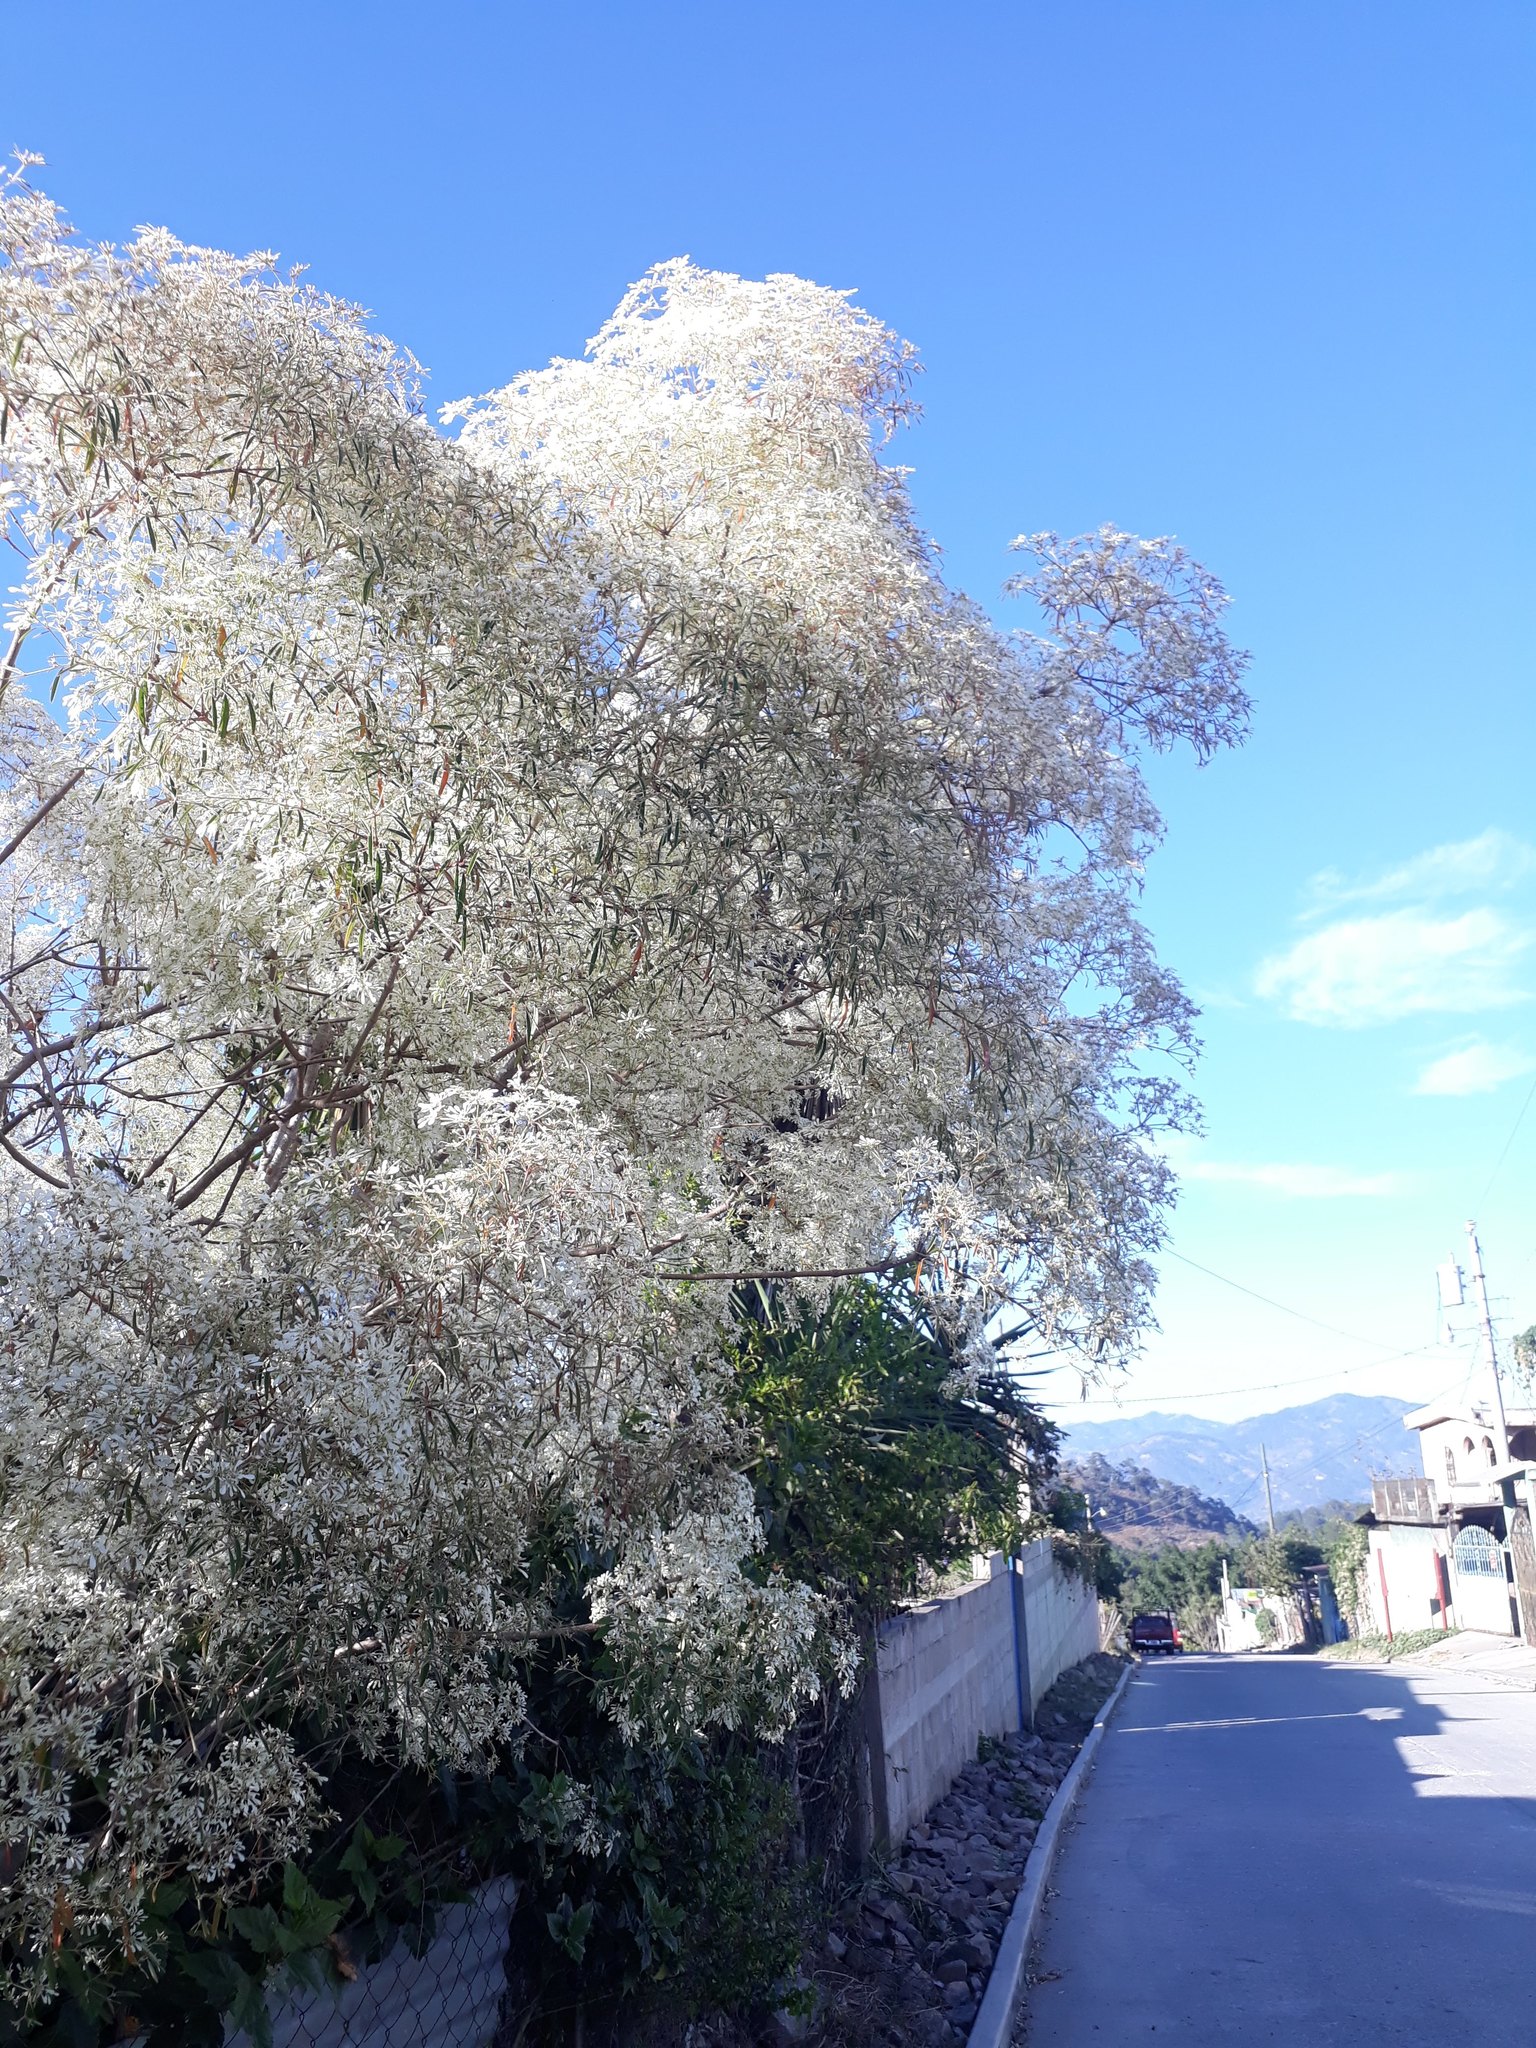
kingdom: Plantae
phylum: Tracheophyta
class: Magnoliopsida
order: Malpighiales
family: Euphorbiaceae
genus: Euphorbia
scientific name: Euphorbia leucocephala
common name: Pascuita
